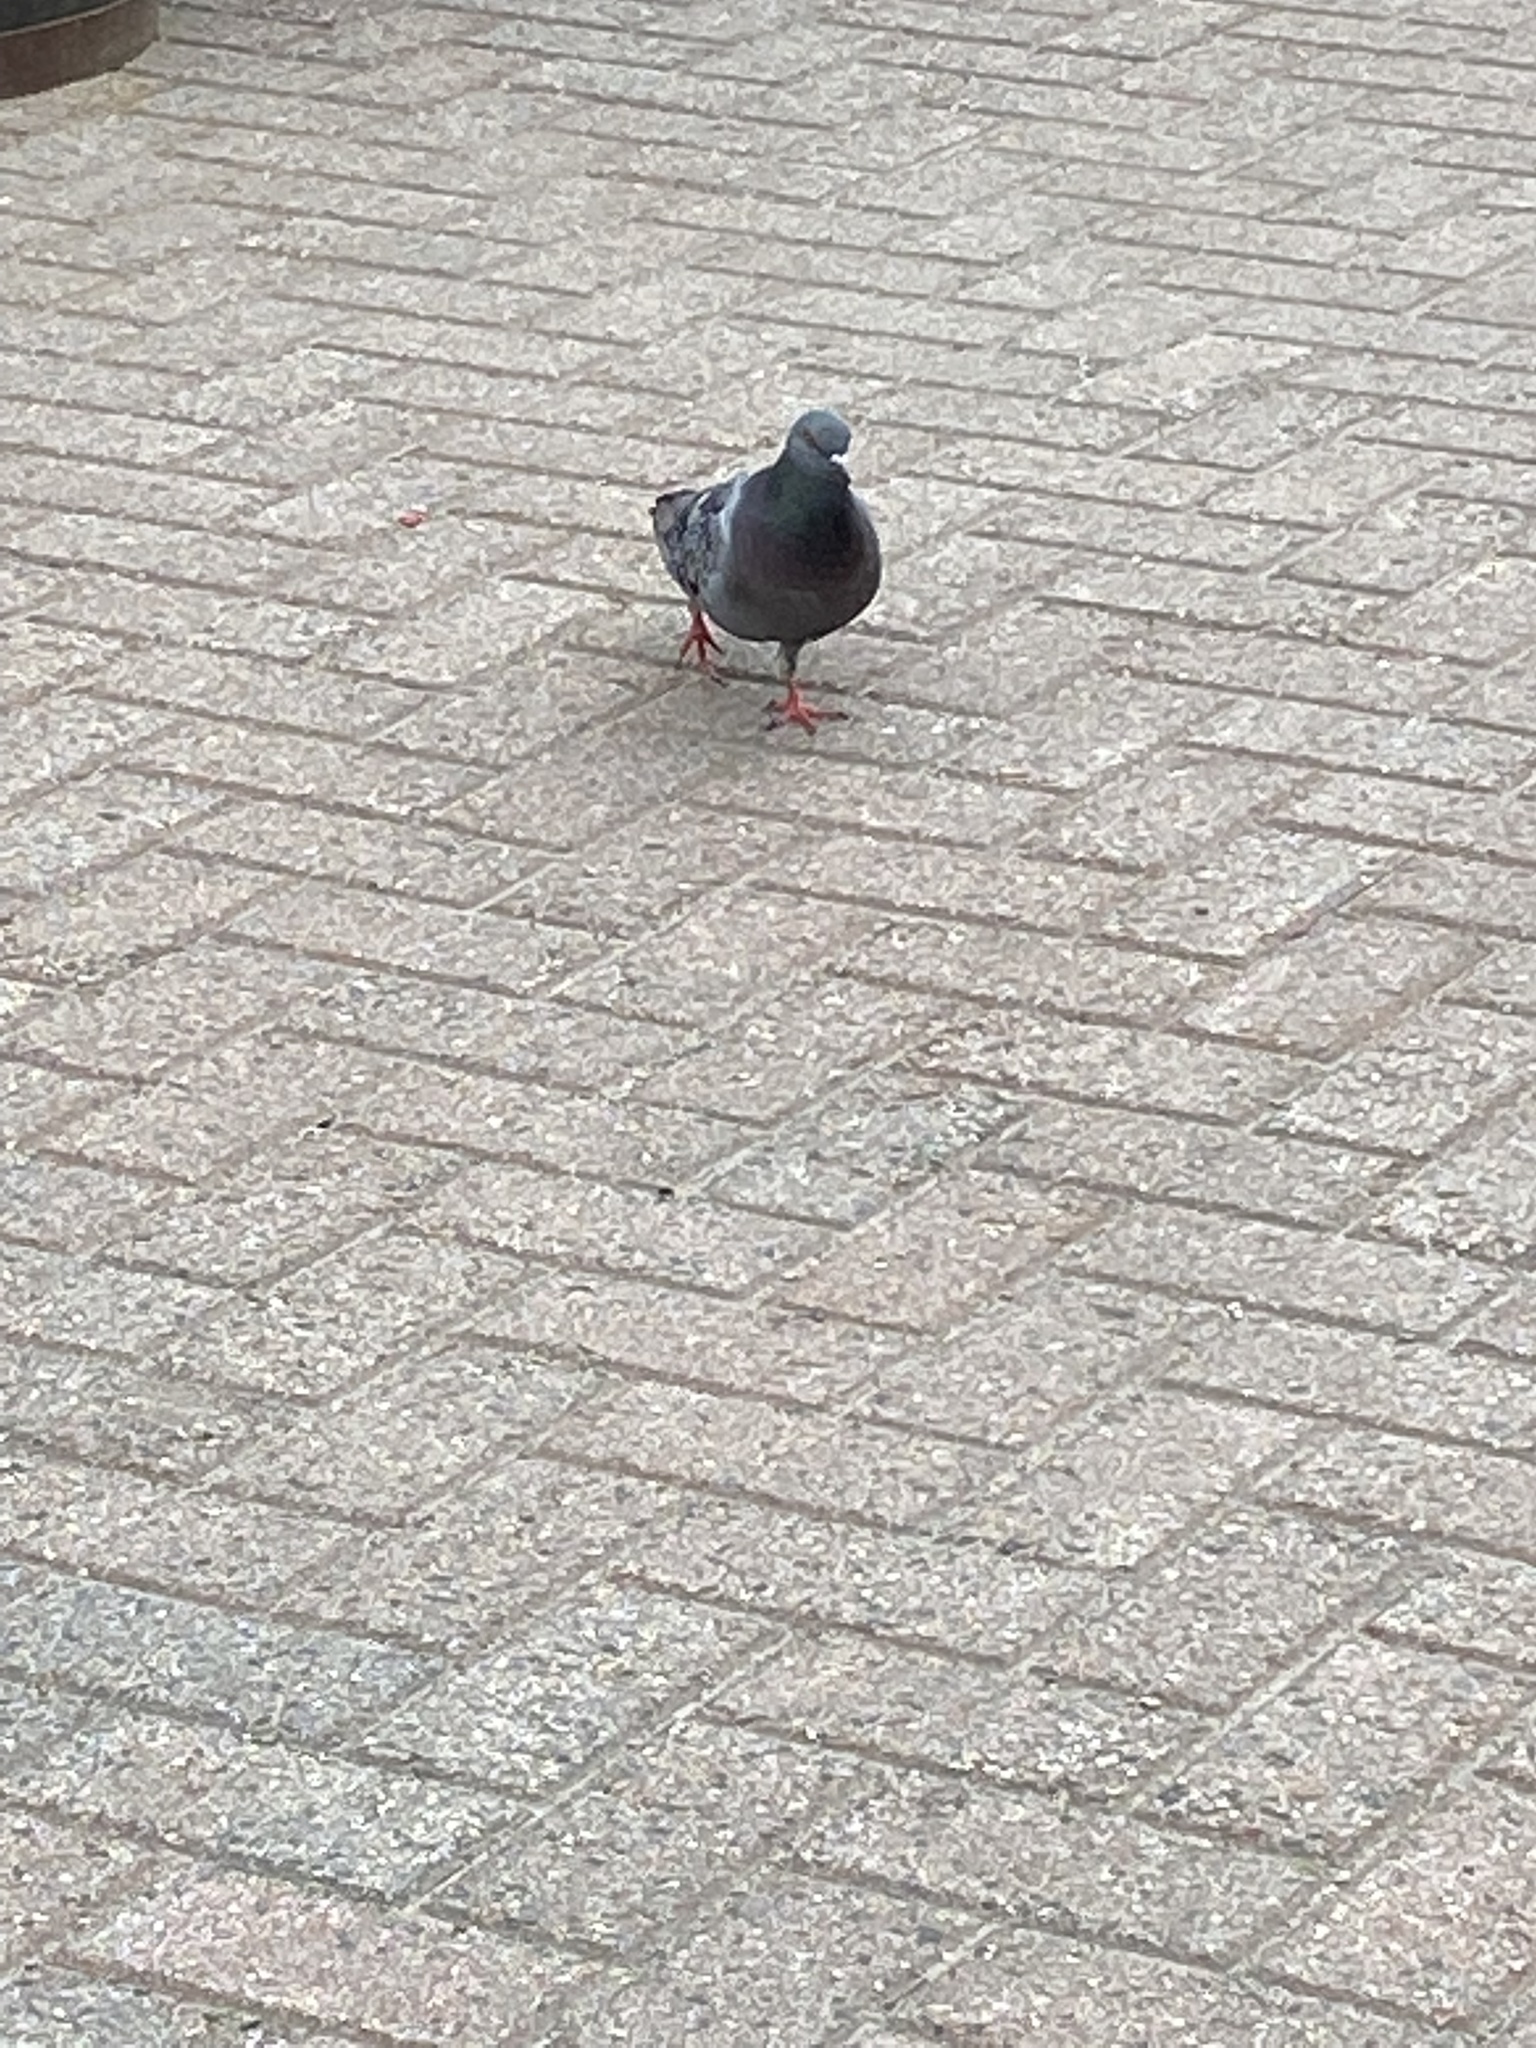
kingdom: Animalia
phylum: Chordata
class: Aves
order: Columbiformes
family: Columbidae
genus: Columba
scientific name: Columba livia
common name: Rock pigeon
